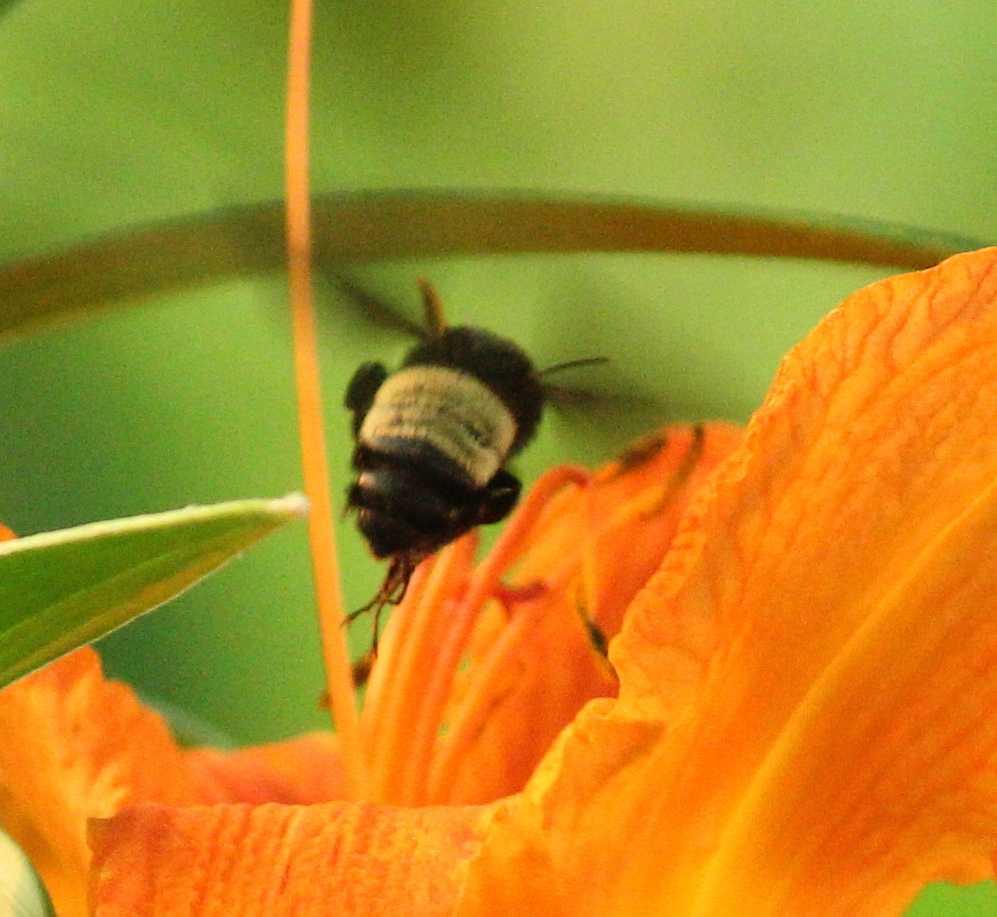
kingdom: Animalia
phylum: Arthropoda
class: Insecta
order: Hymenoptera
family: Apidae
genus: Bombus
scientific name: Bombus pensylvanicus
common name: Bumble bee
